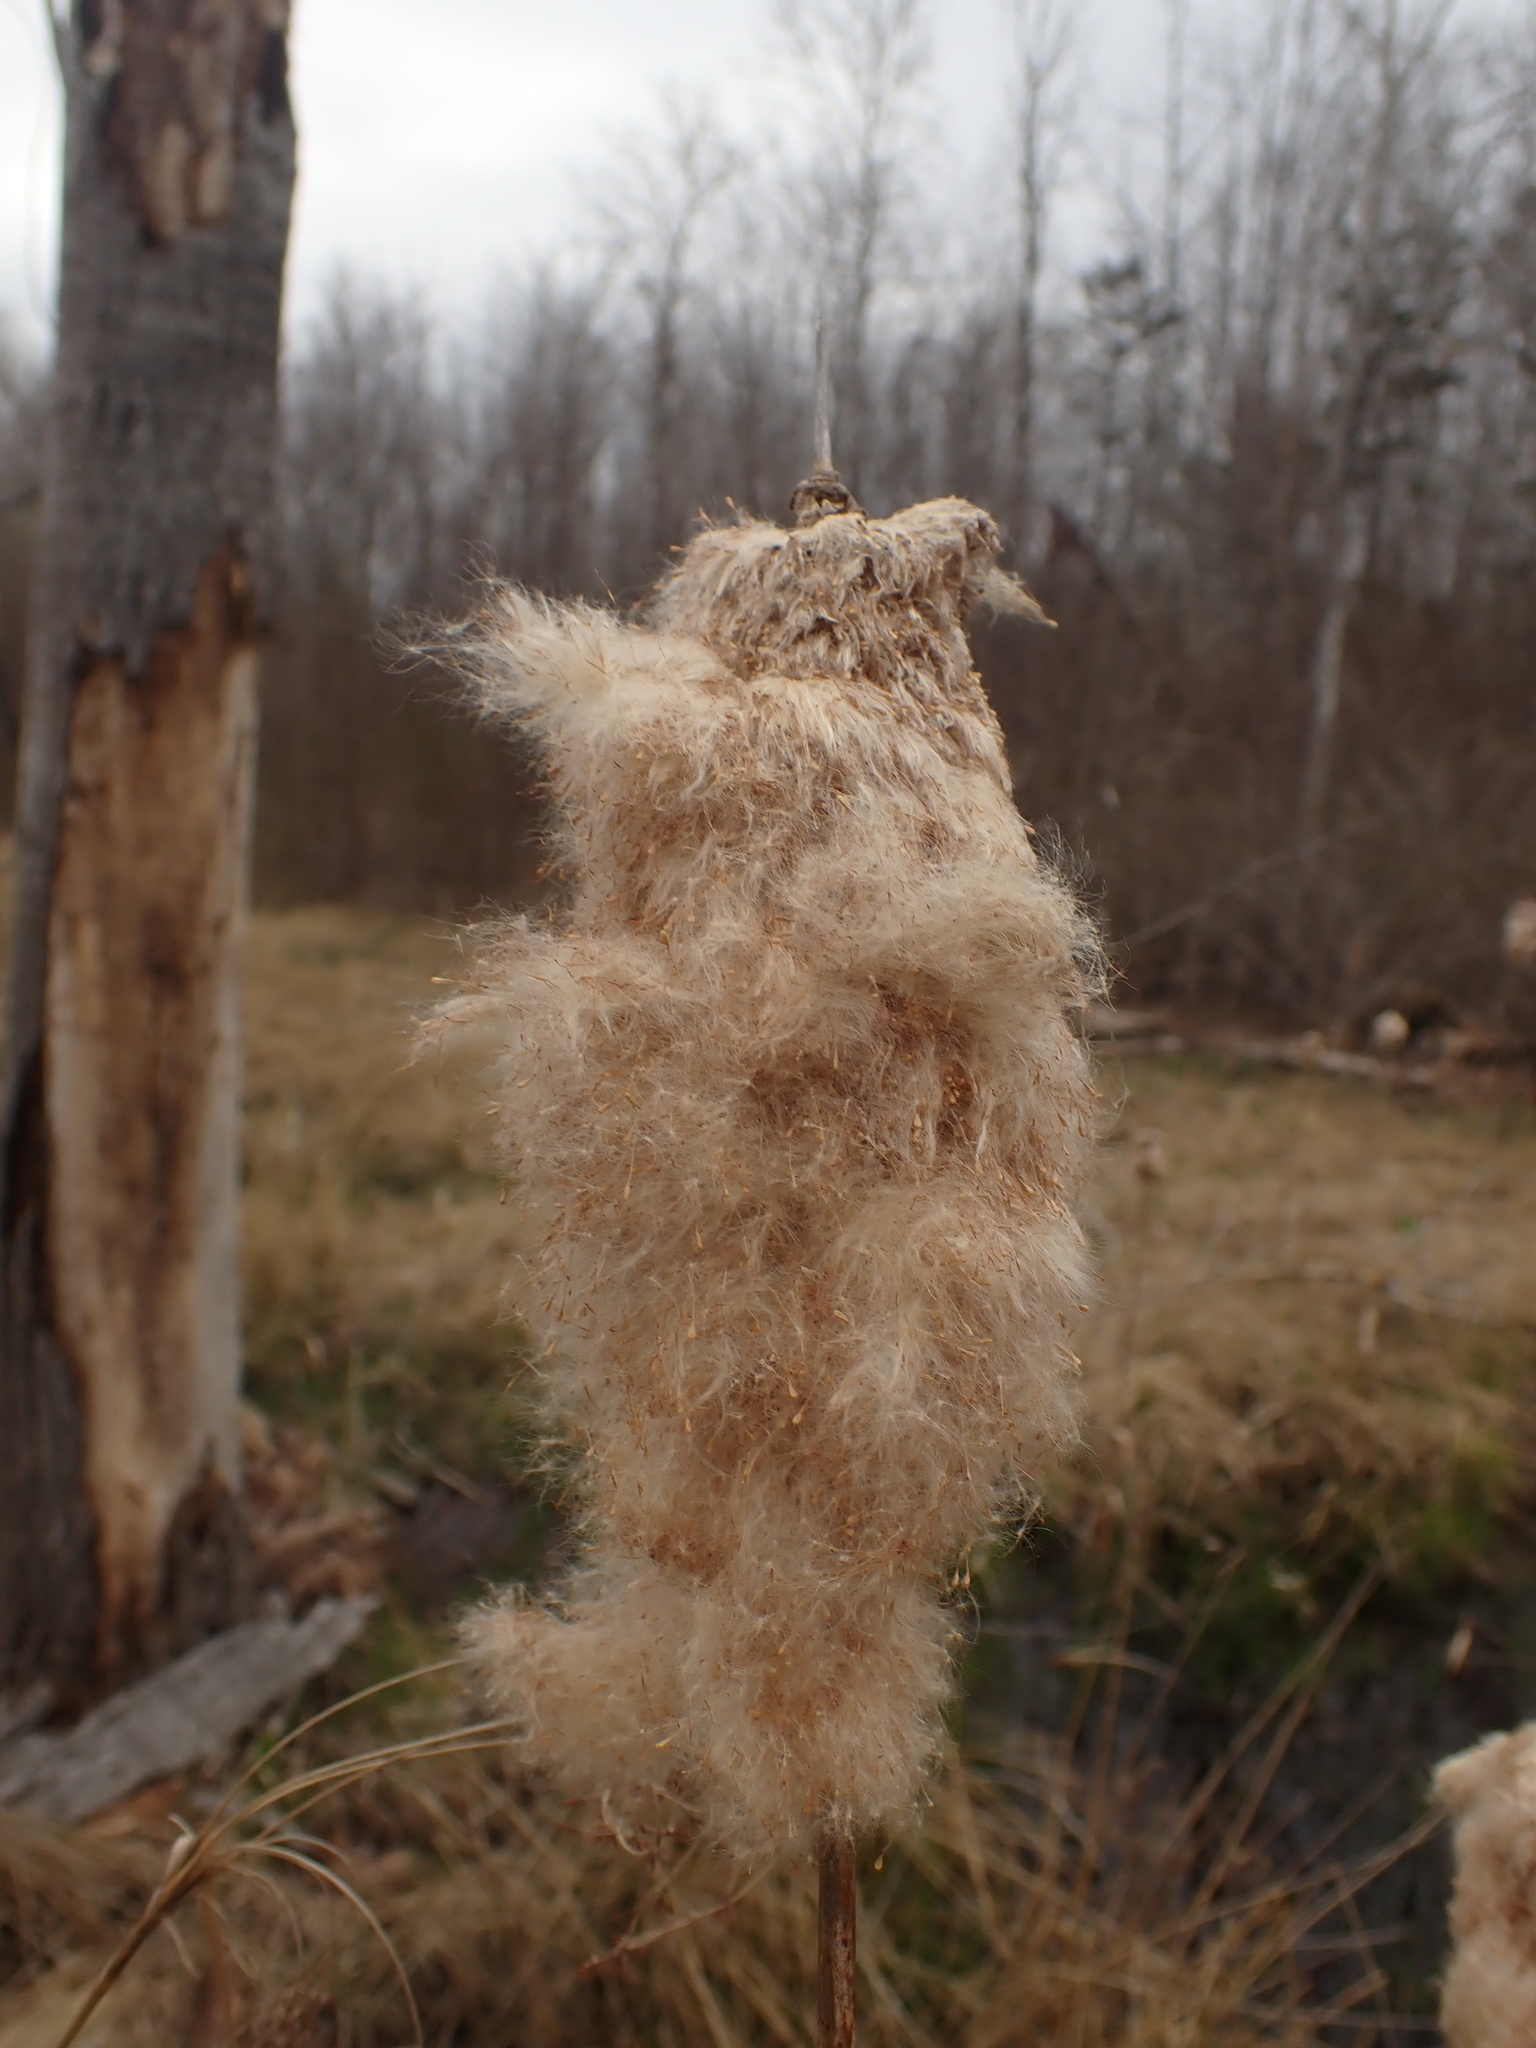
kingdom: Plantae
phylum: Tracheophyta
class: Liliopsida
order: Poales
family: Typhaceae
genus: Typha
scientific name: Typha latifolia
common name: Broadleaf cattail
